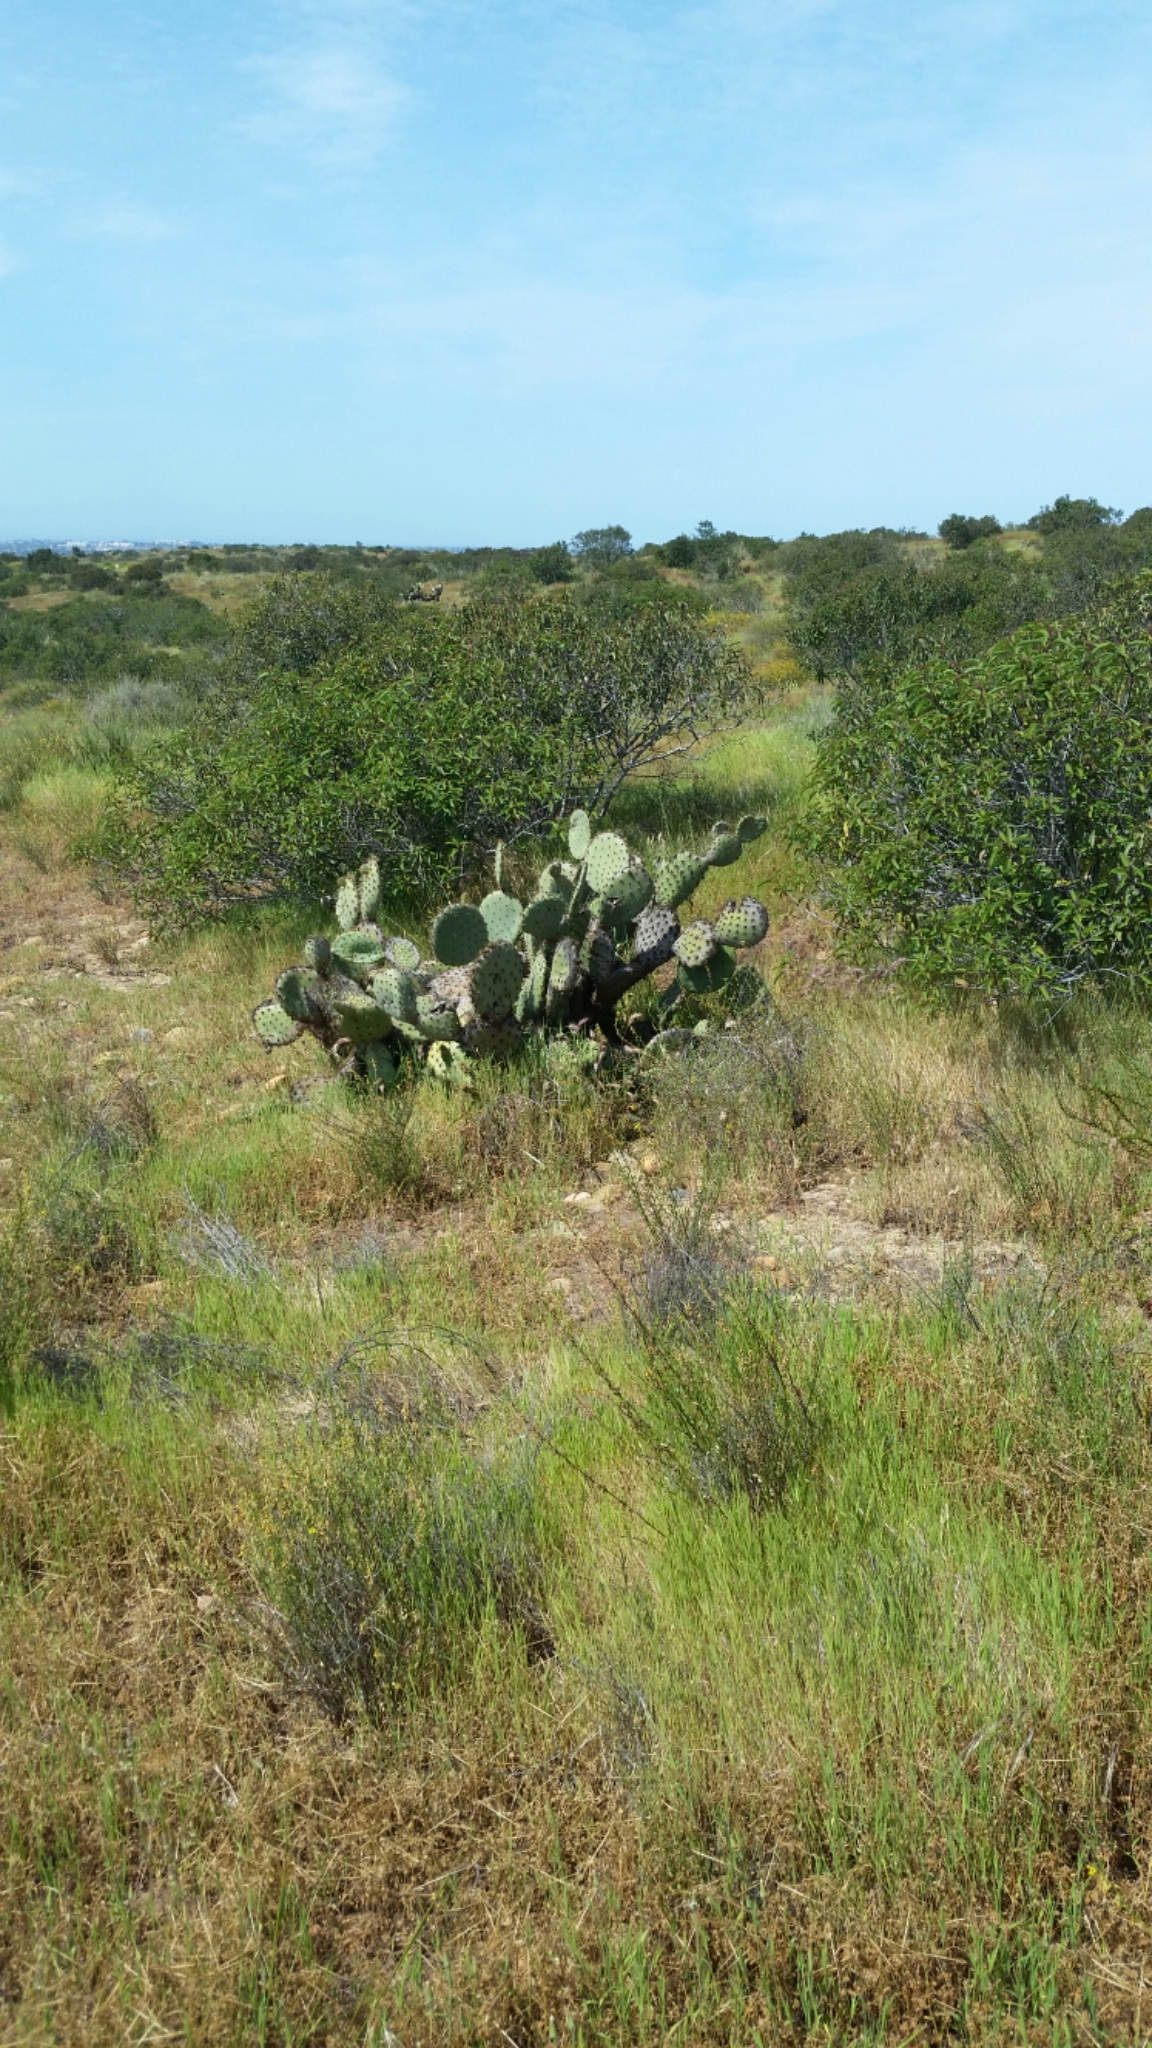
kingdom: Plantae
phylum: Tracheophyta
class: Magnoliopsida
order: Caryophyllales
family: Cactaceae
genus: Opuntia
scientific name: Opuntia oricola
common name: Chaparral prickly-pear
